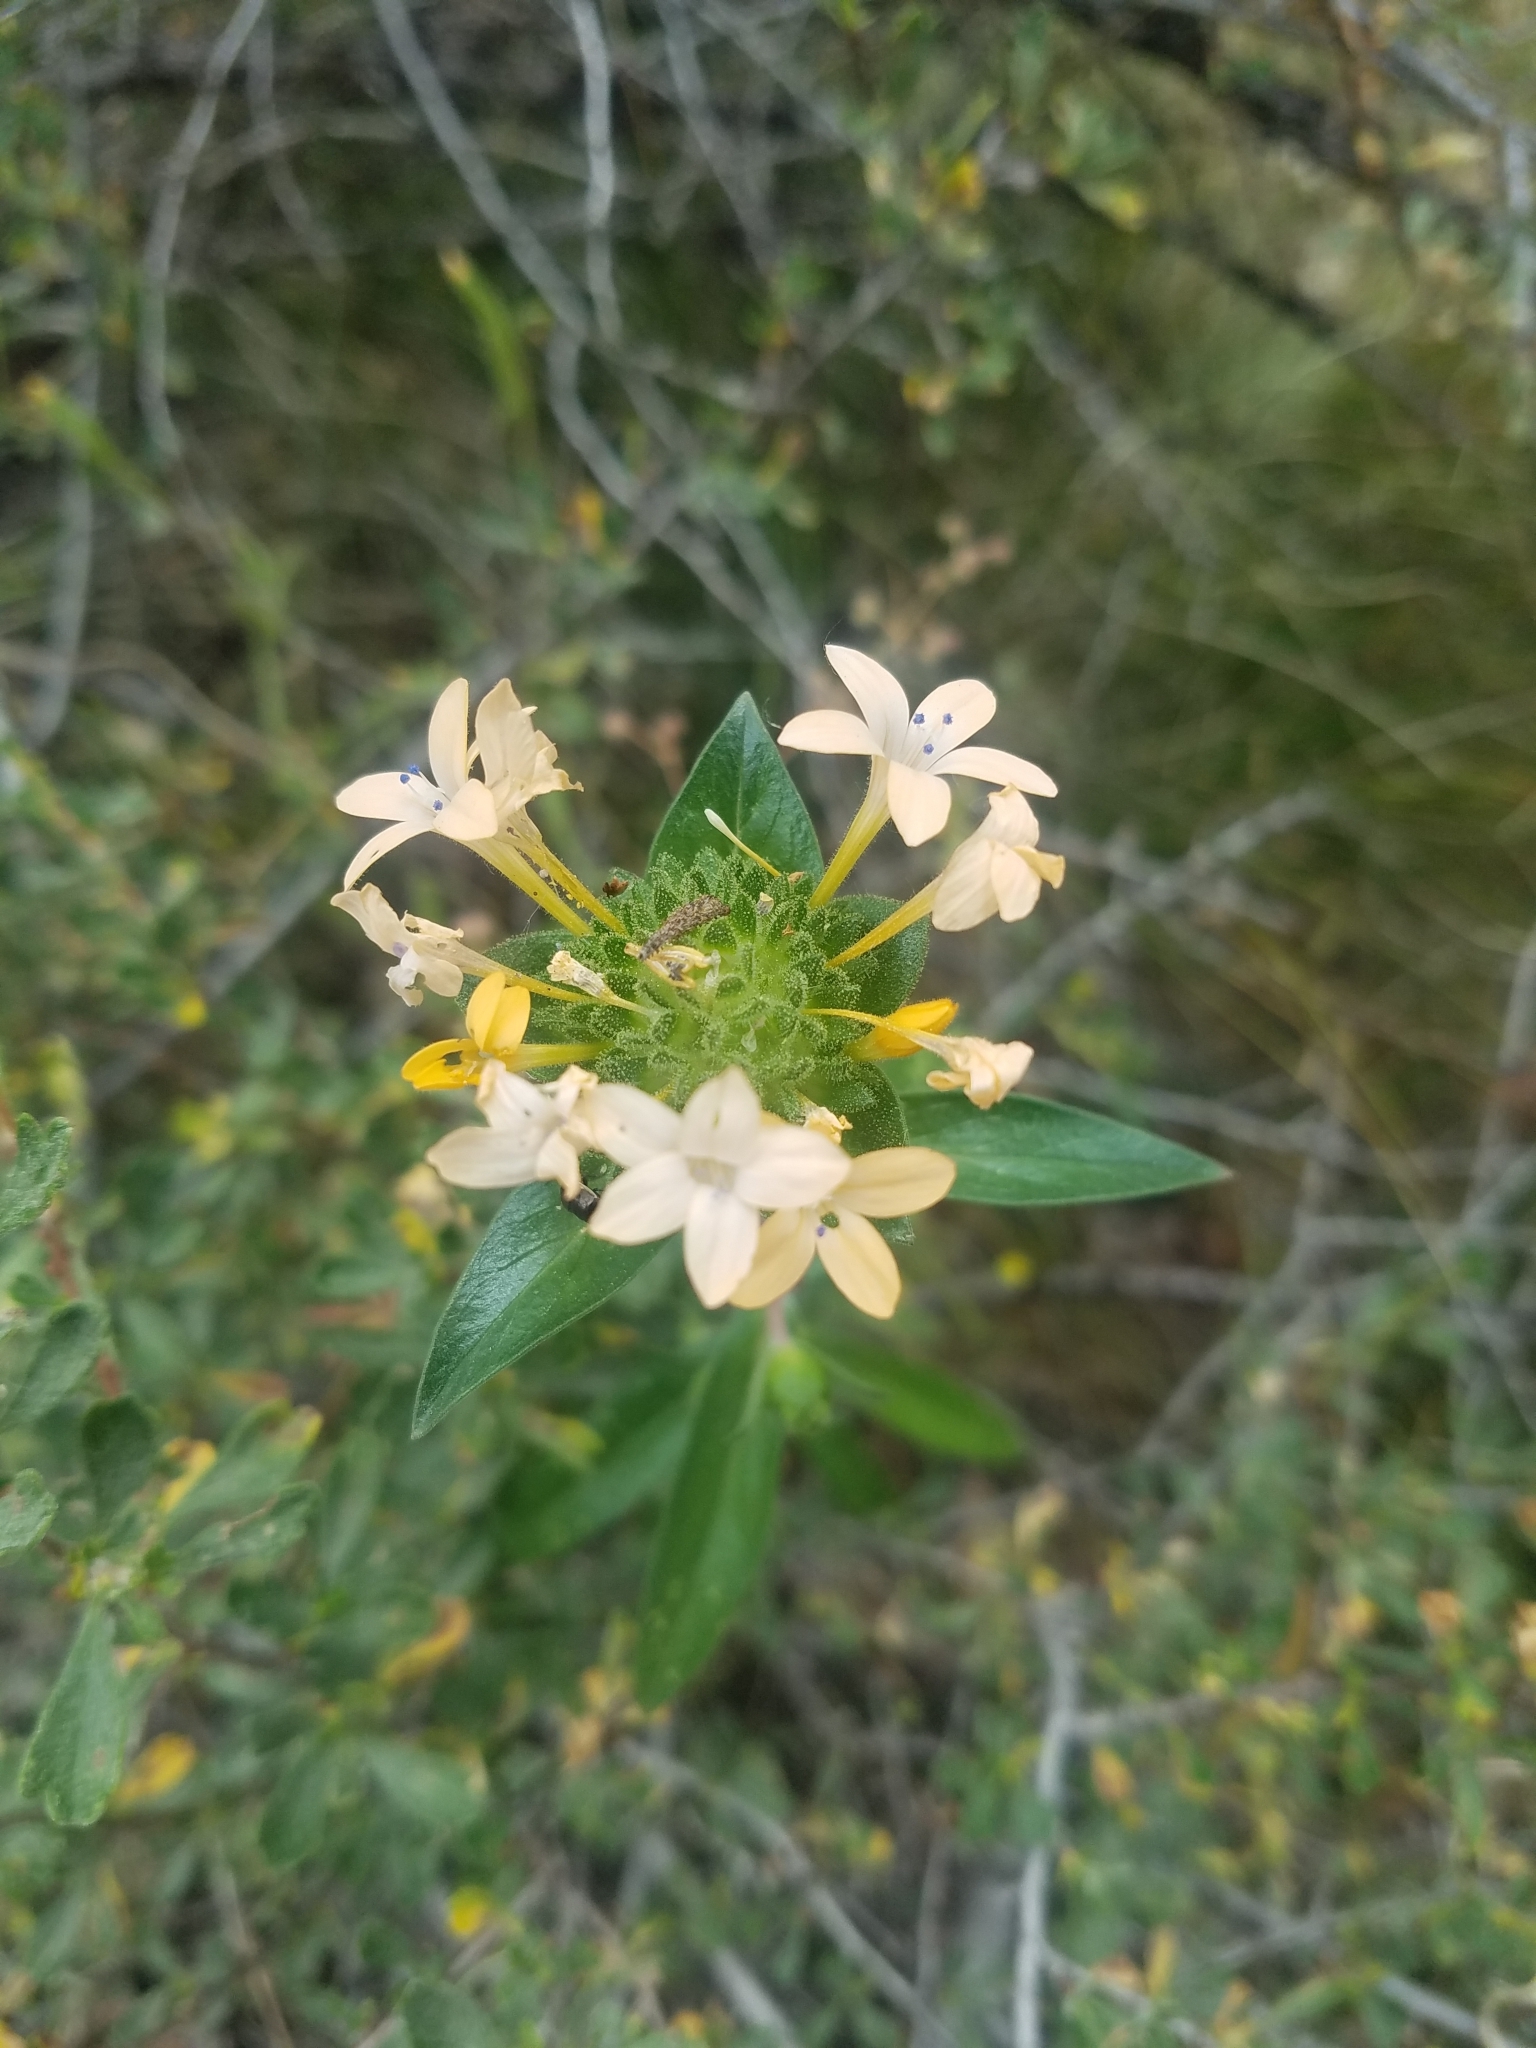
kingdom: Plantae
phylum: Tracheophyta
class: Magnoliopsida
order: Ericales
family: Polemoniaceae
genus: Collomia
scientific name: Collomia grandiflora
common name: California strawflower
